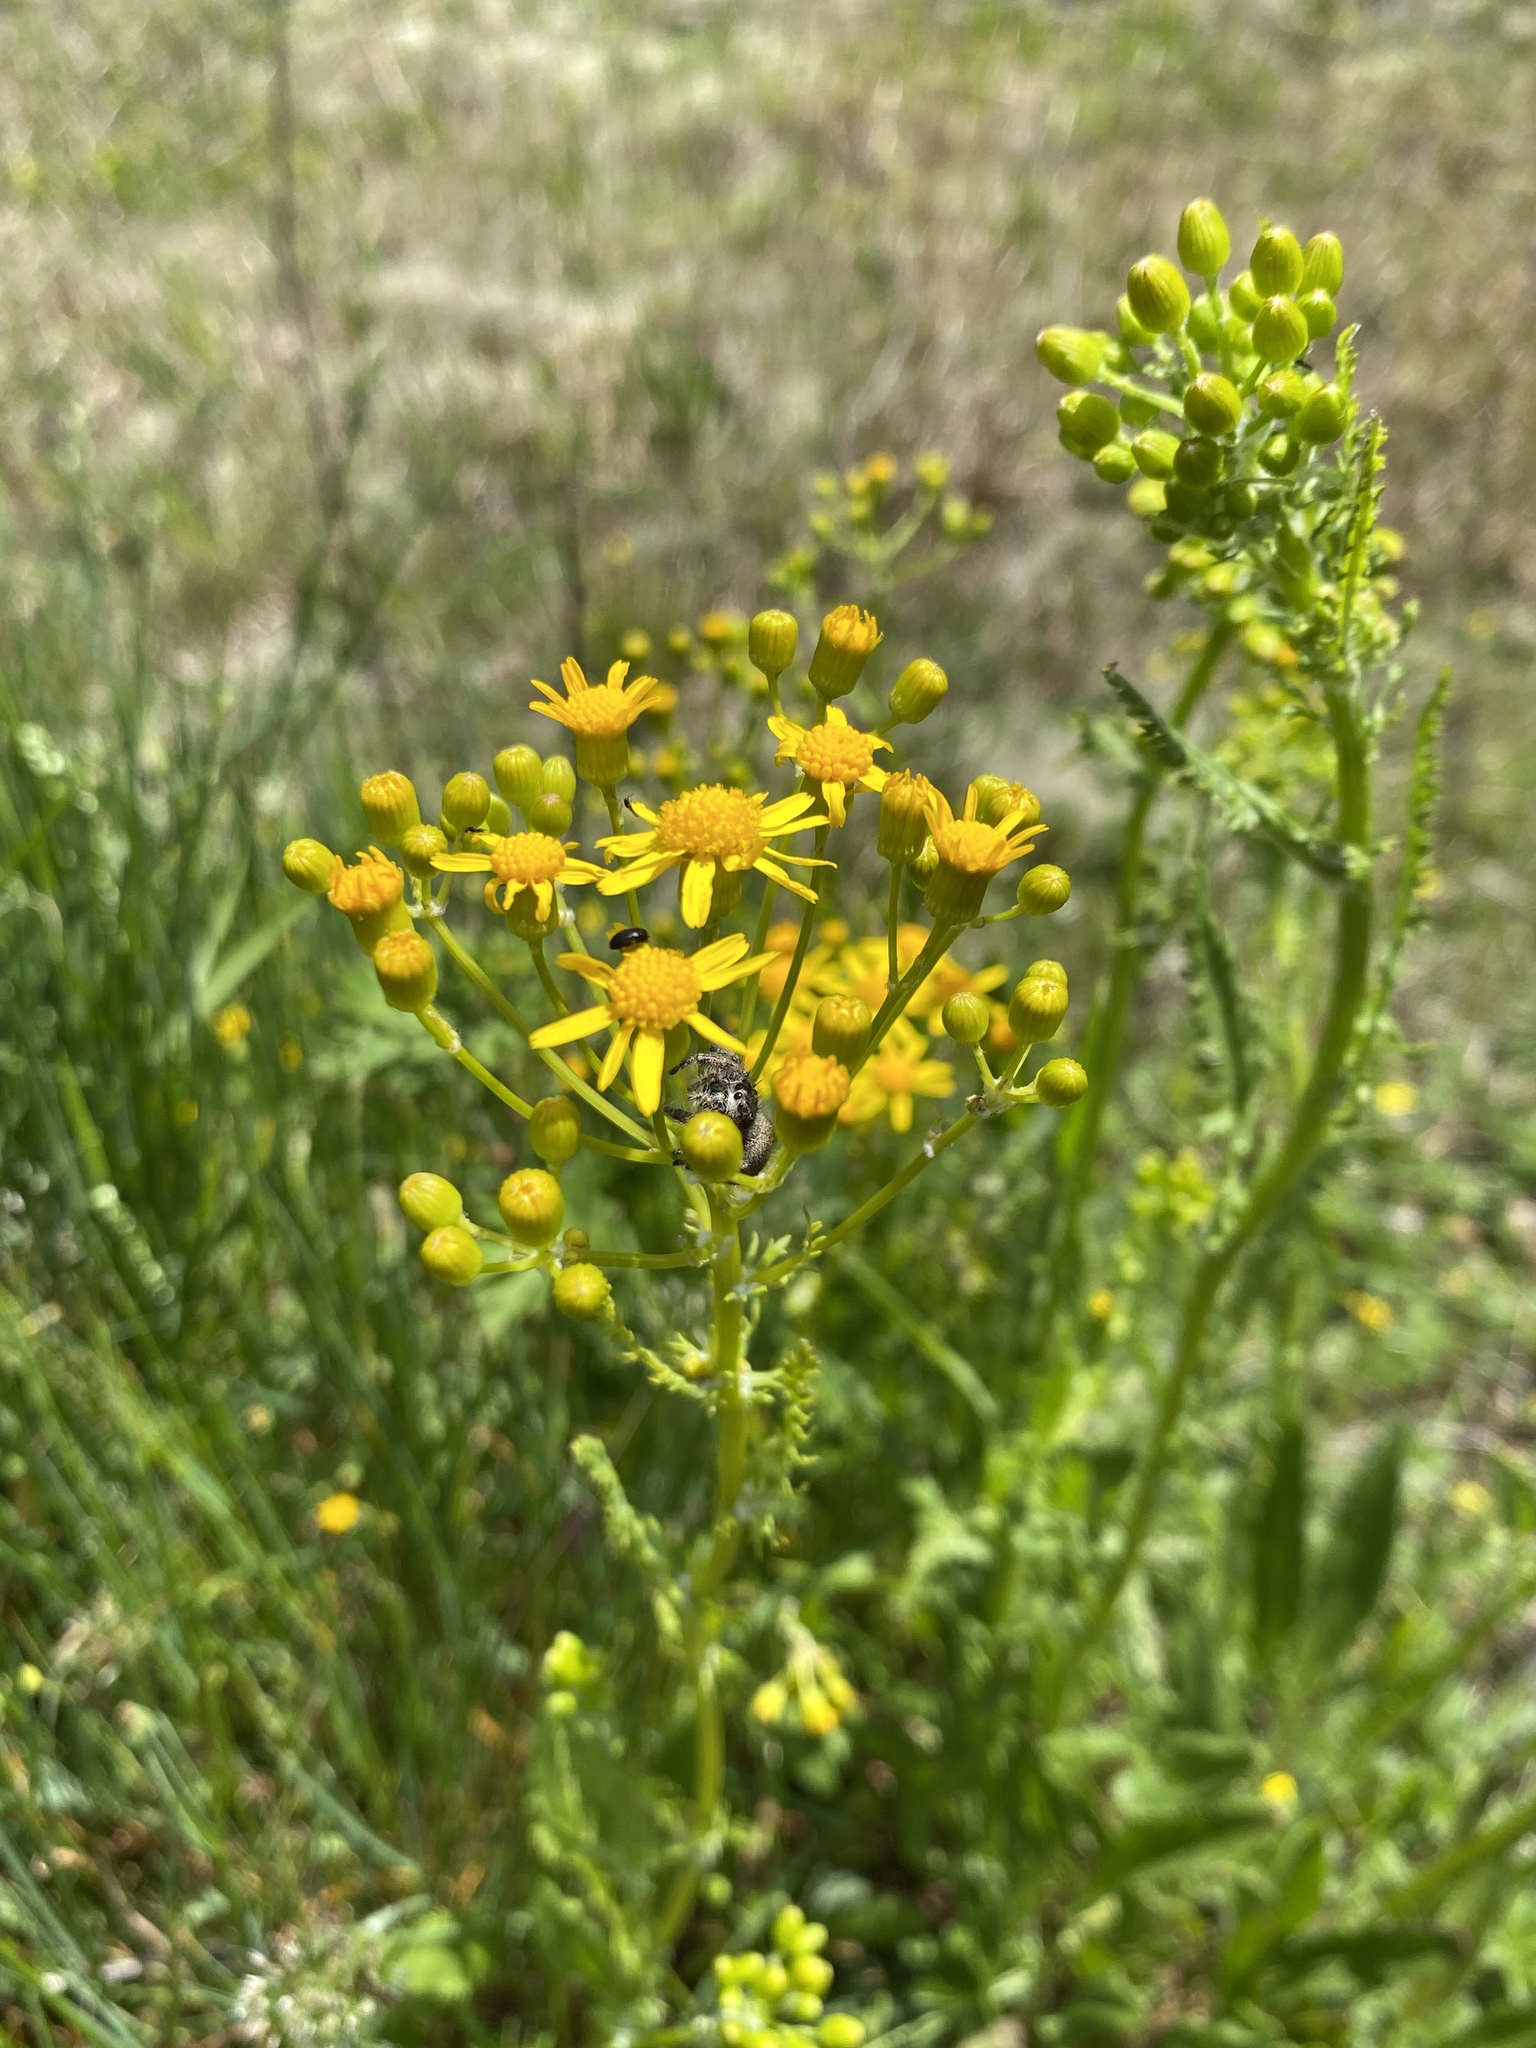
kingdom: Plantae
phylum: Tracheophyta
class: Magnoliopsida
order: Asterales
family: Asteraceae
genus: Packera
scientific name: Packera anonyma
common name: Small ragwort
